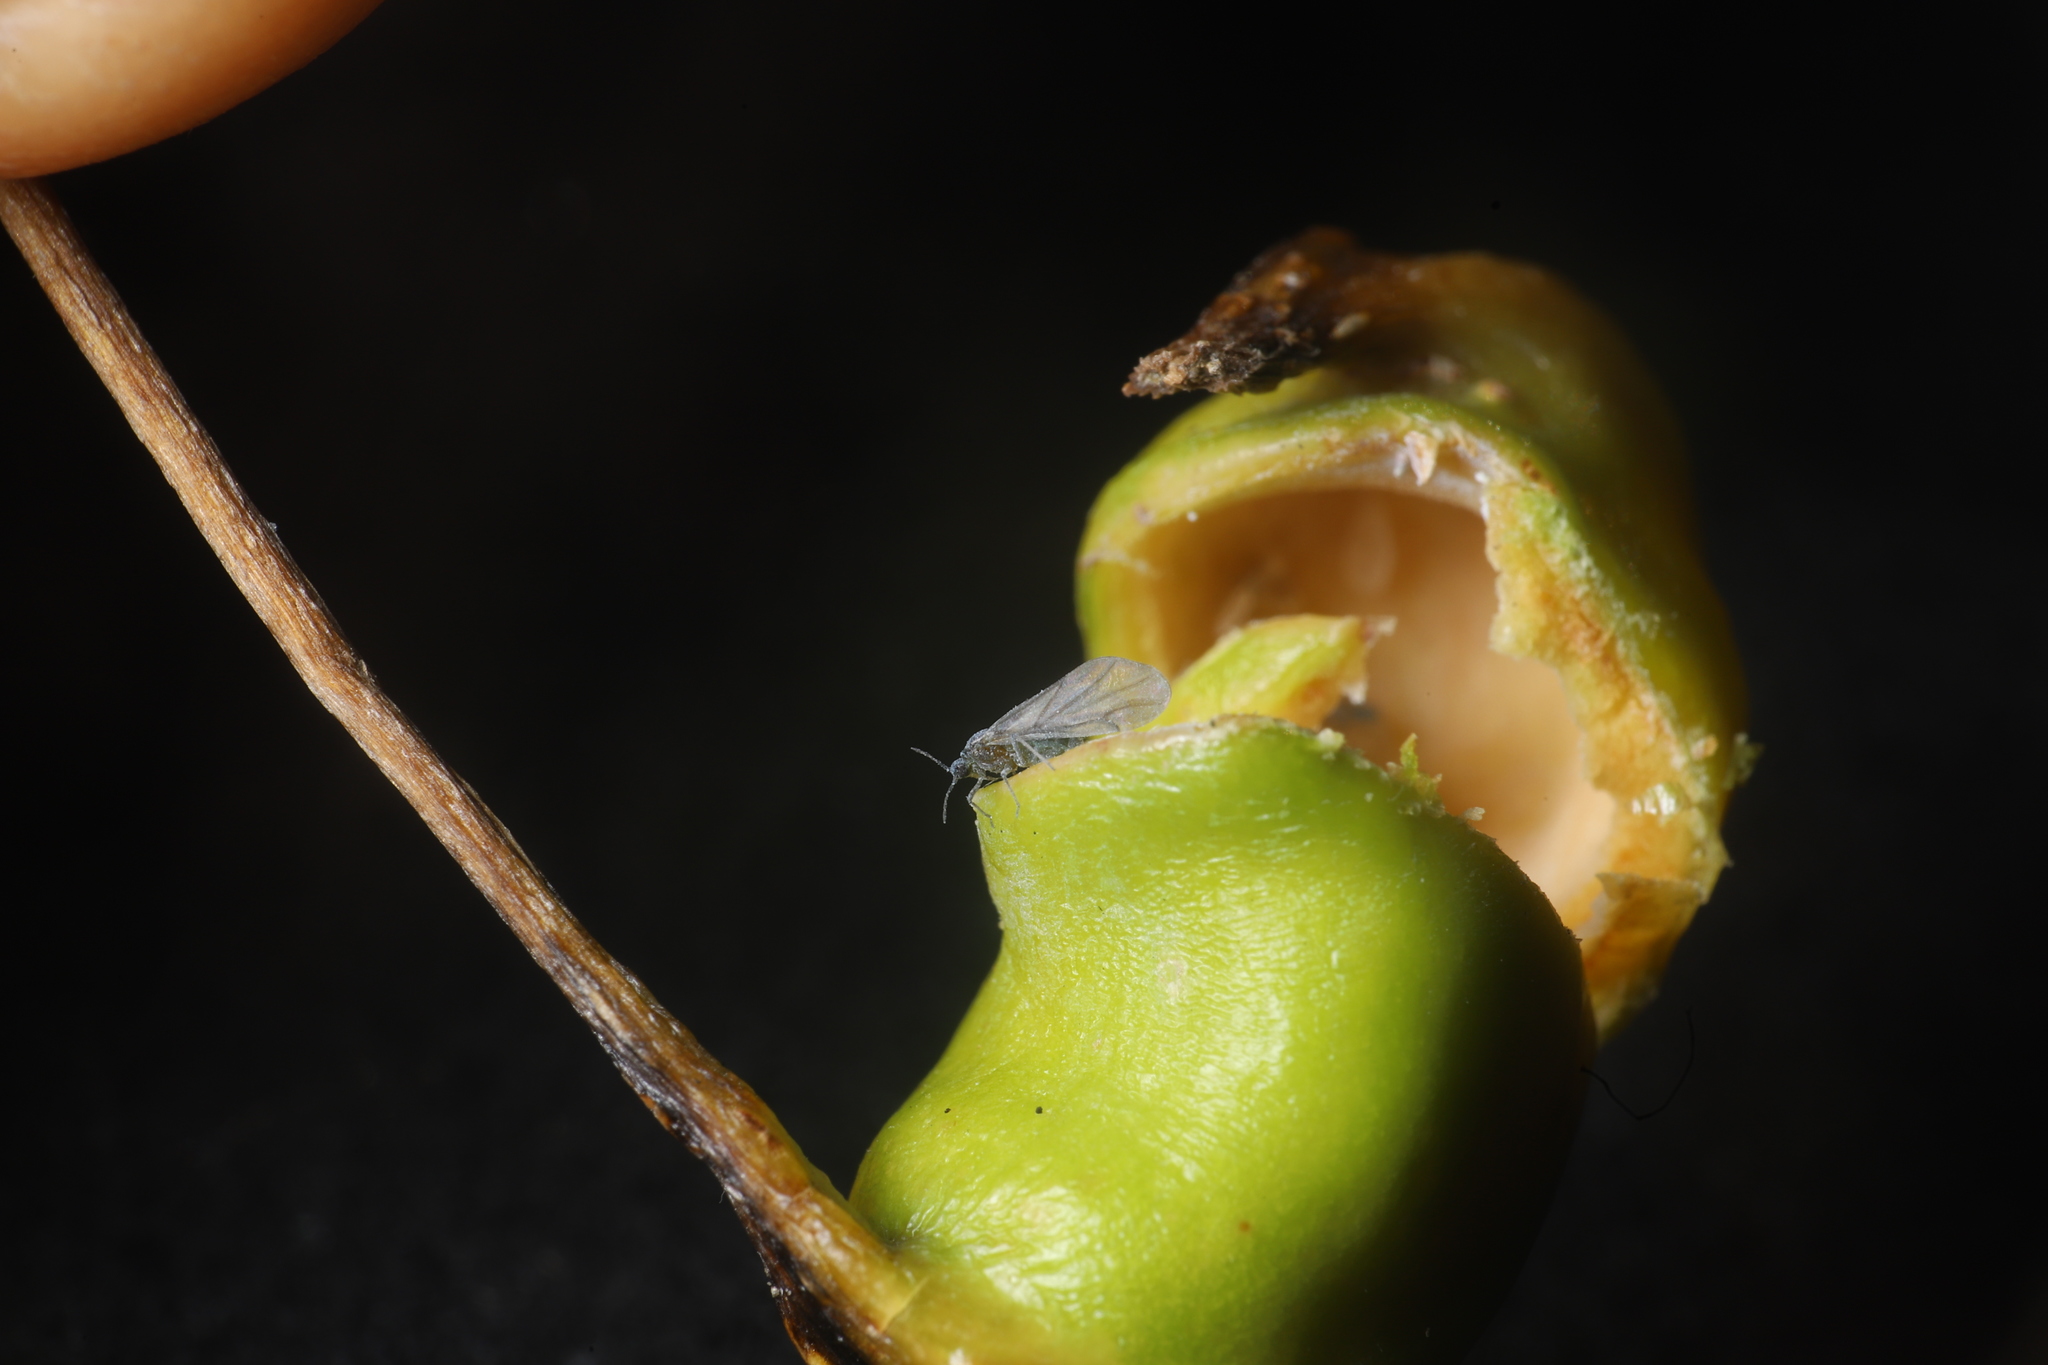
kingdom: Animalia
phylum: Arthropoda
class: Insecta
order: Hemiptera
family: Aphididae
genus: Pemphigus
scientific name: Pemphigus populitransversus
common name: Poplar petiolegall aphid
